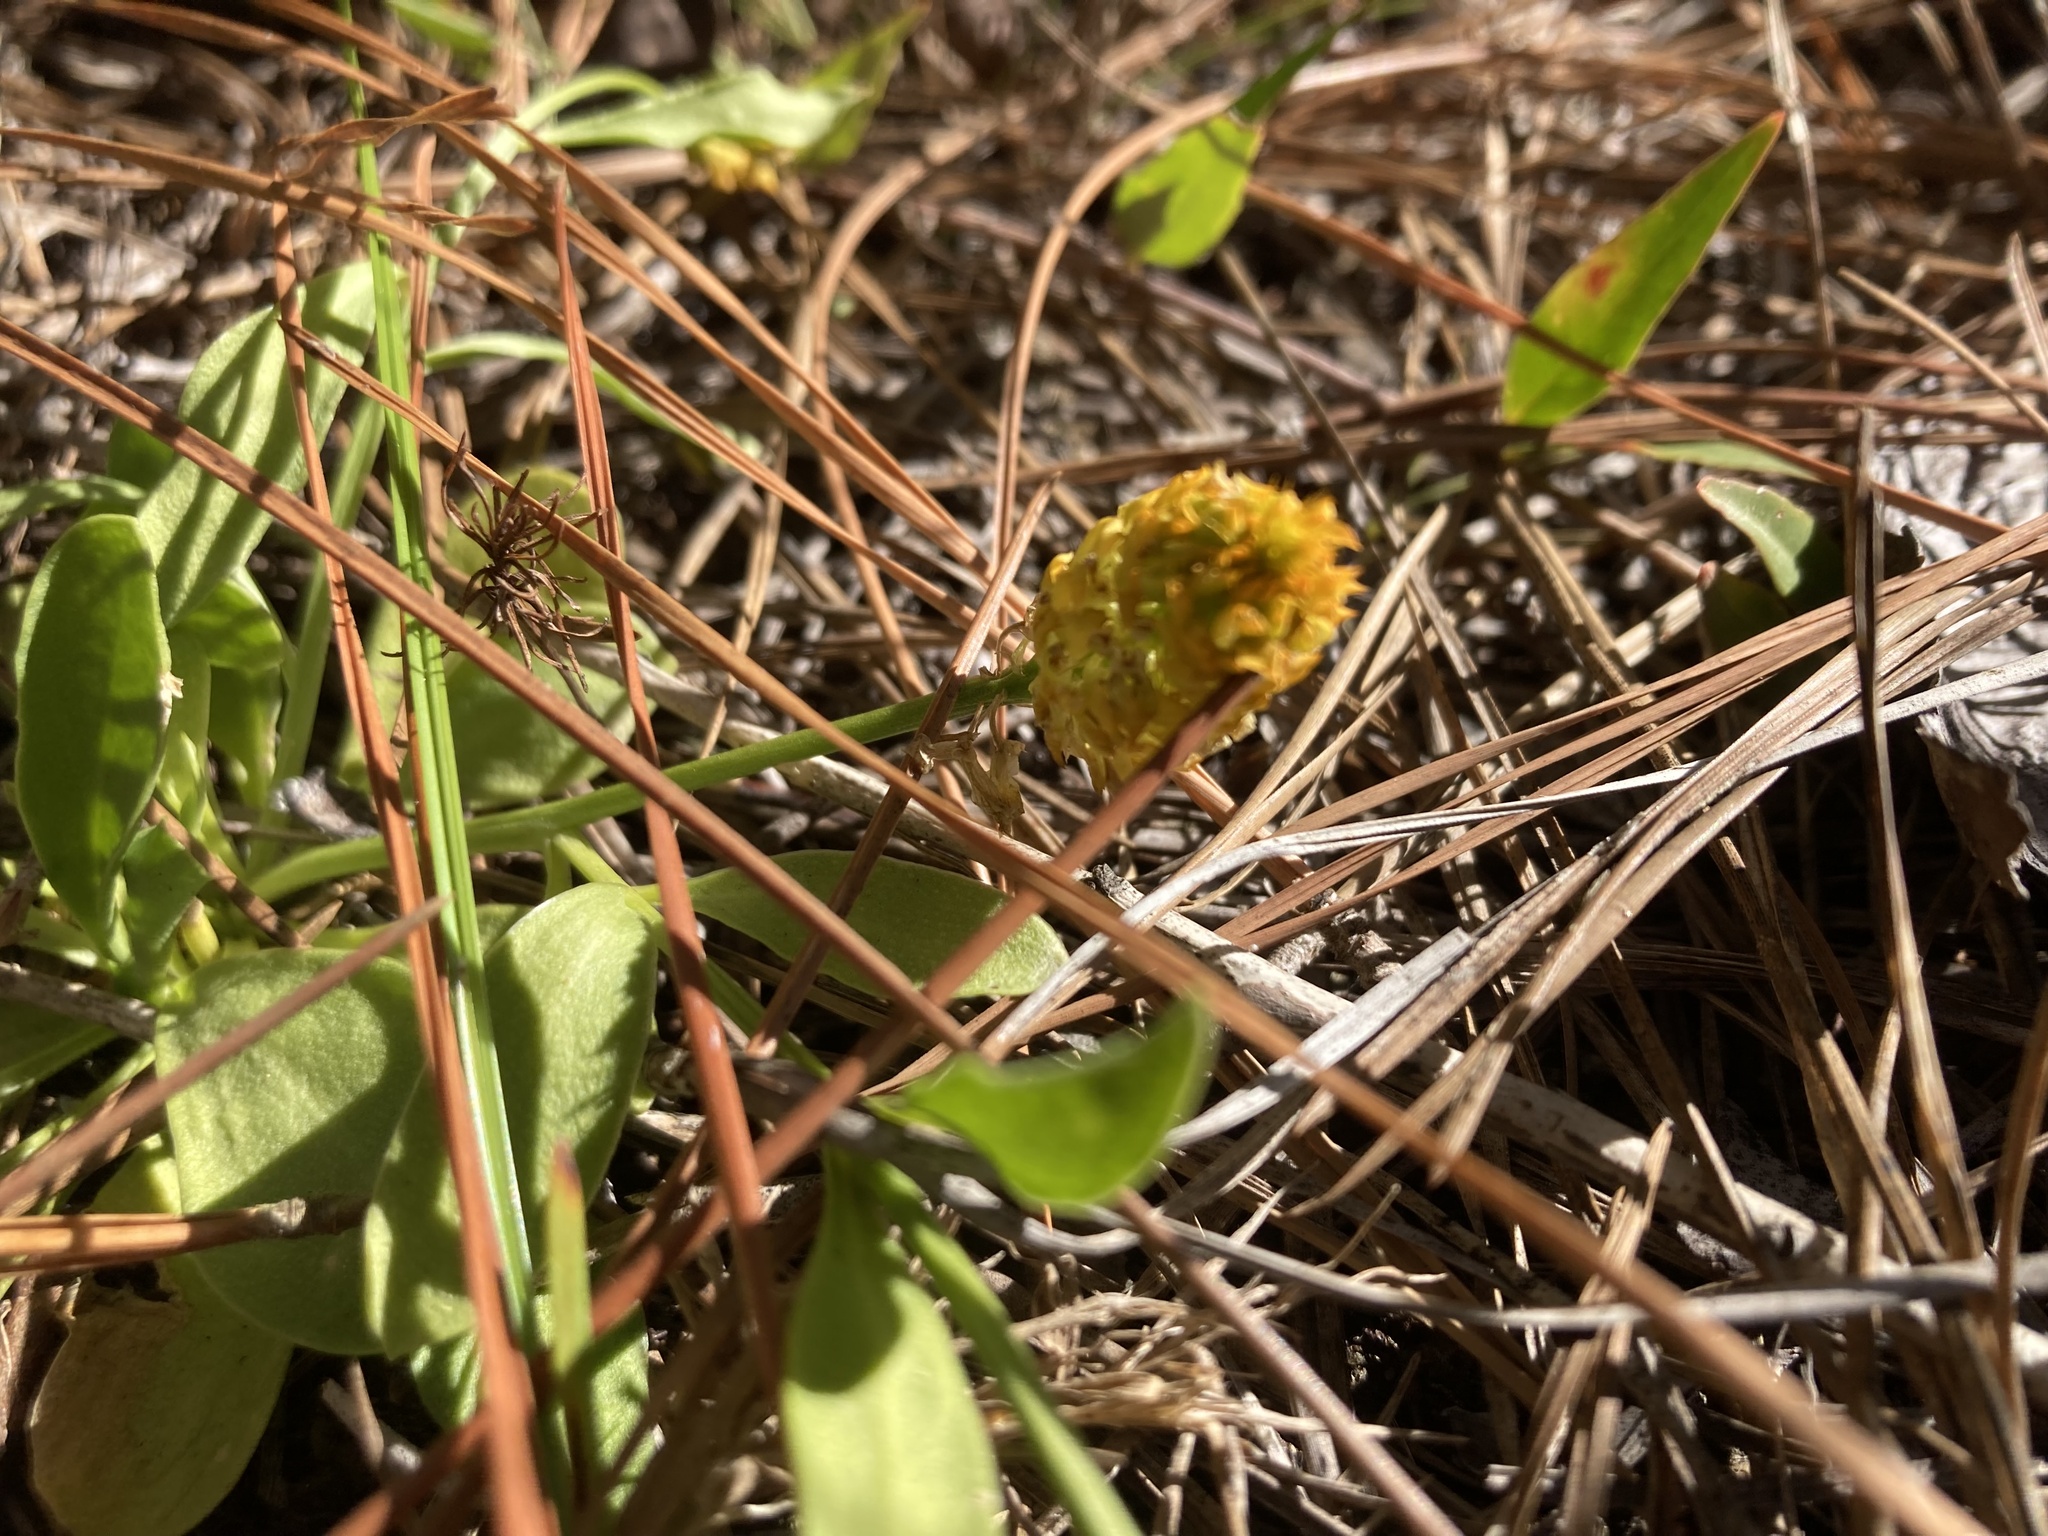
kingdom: Plantae
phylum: Tracheophyta
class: Magnoliopsida
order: Fabales
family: Polygalaceae
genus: Polygala
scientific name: Polygala lutea
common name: Orange milkwort
